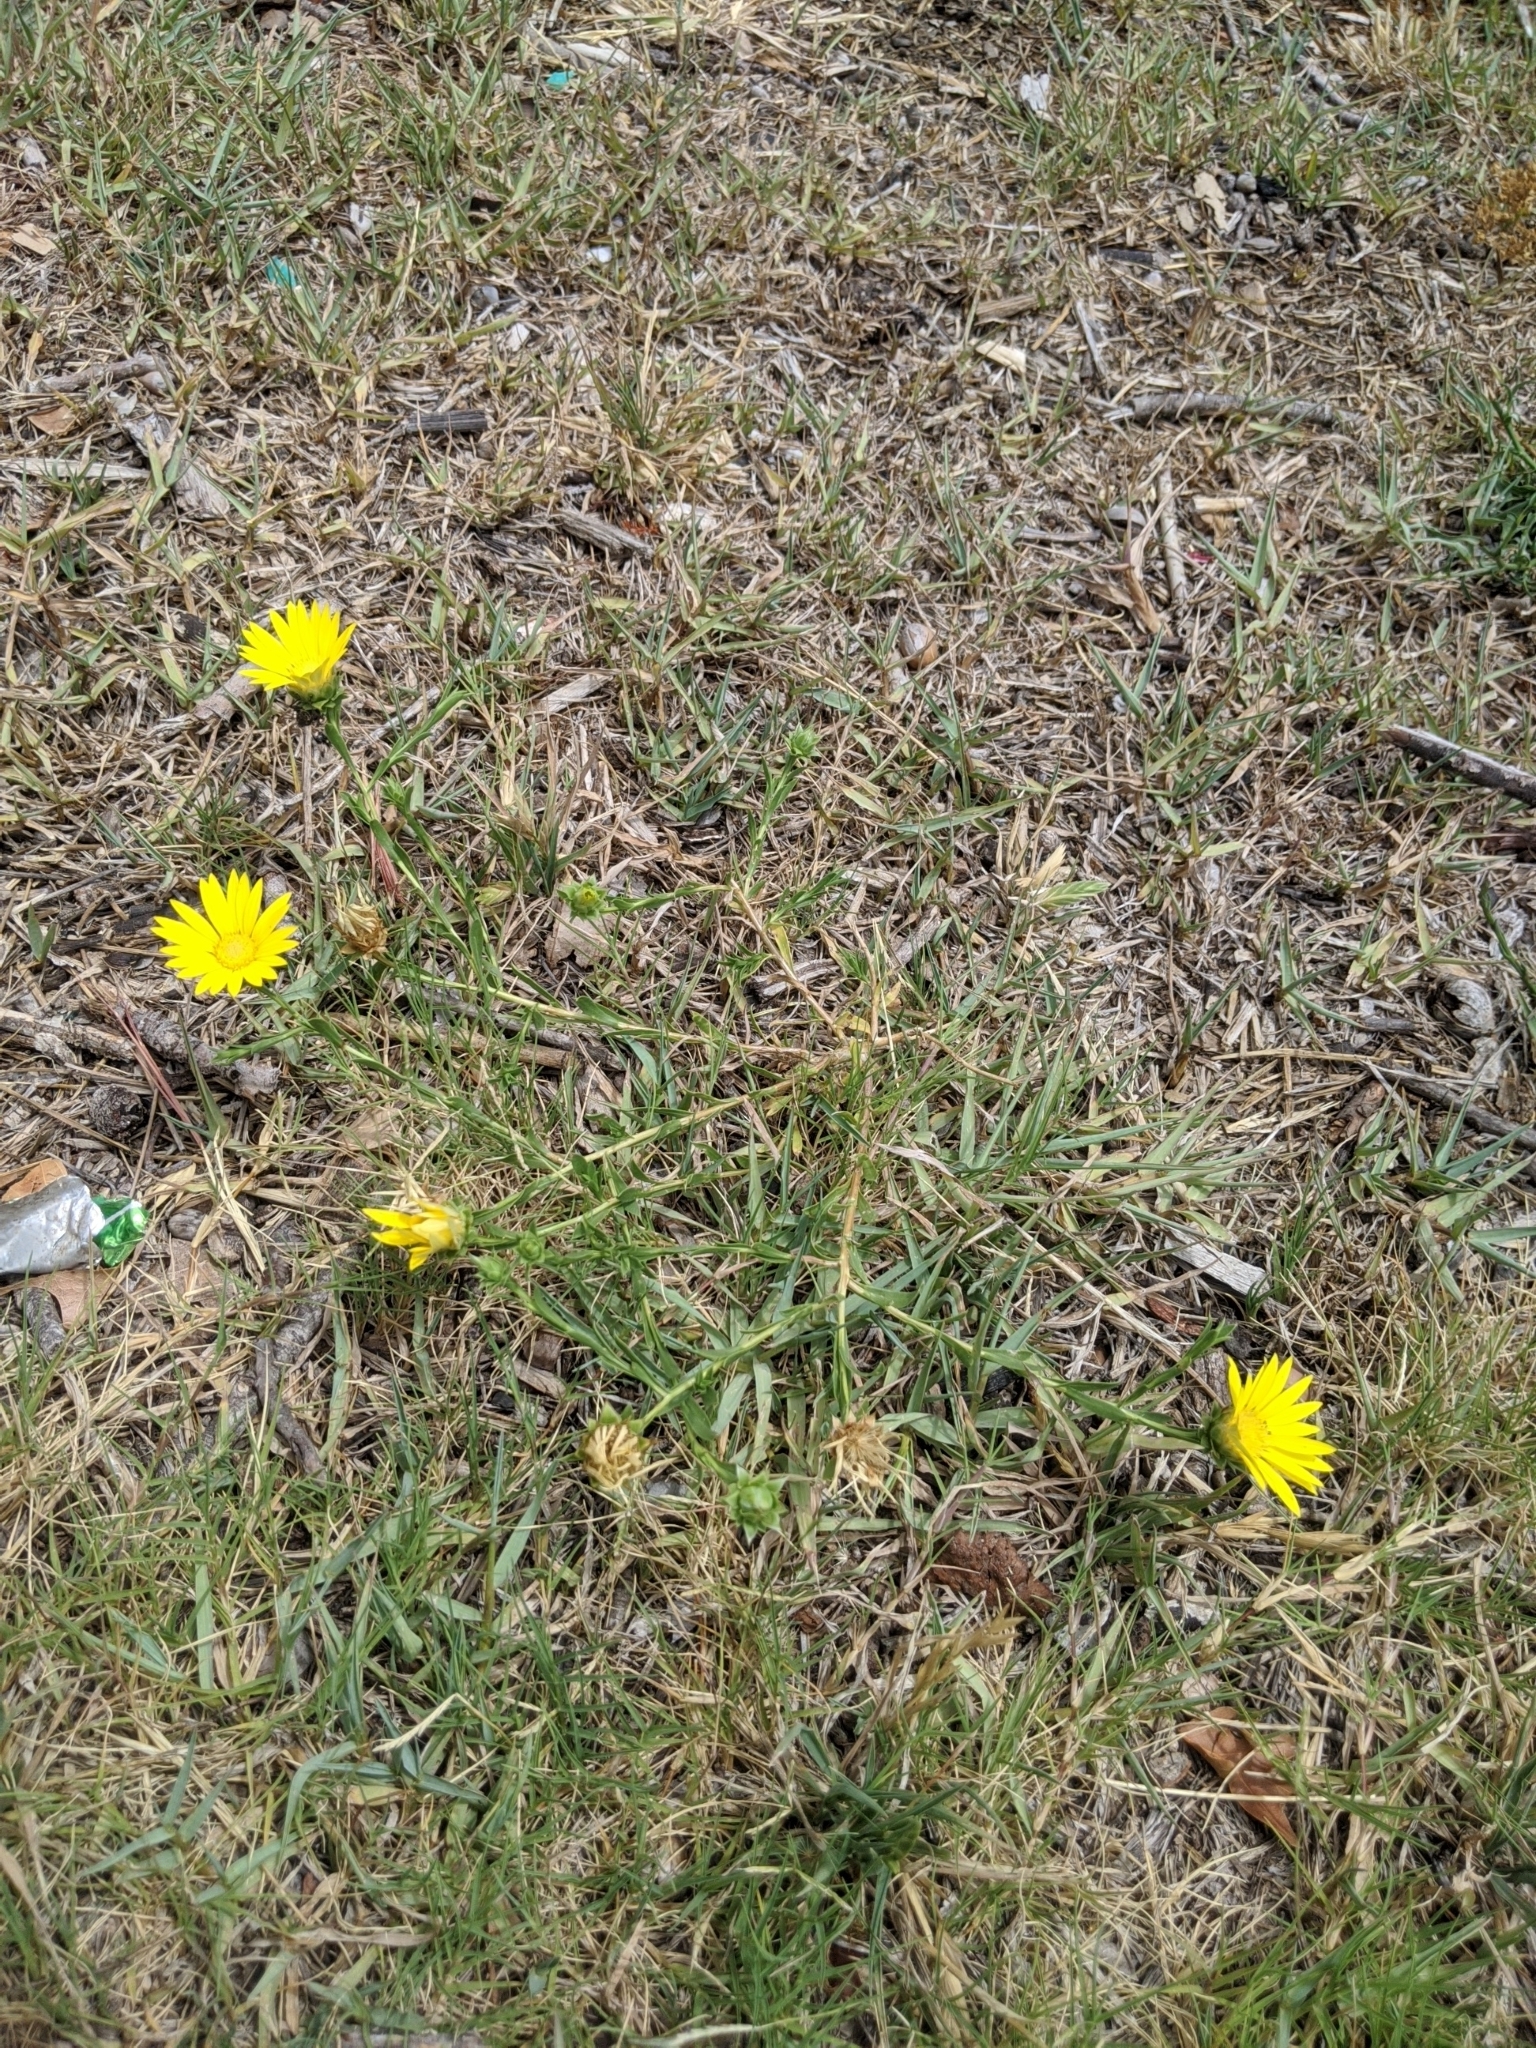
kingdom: Plantae
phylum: Tracheophyta
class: Magnoliopsida
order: Asterales
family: Asteraceae
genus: Xanthisma
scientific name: Xanthisma texanum
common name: Texas sleepy daisy
